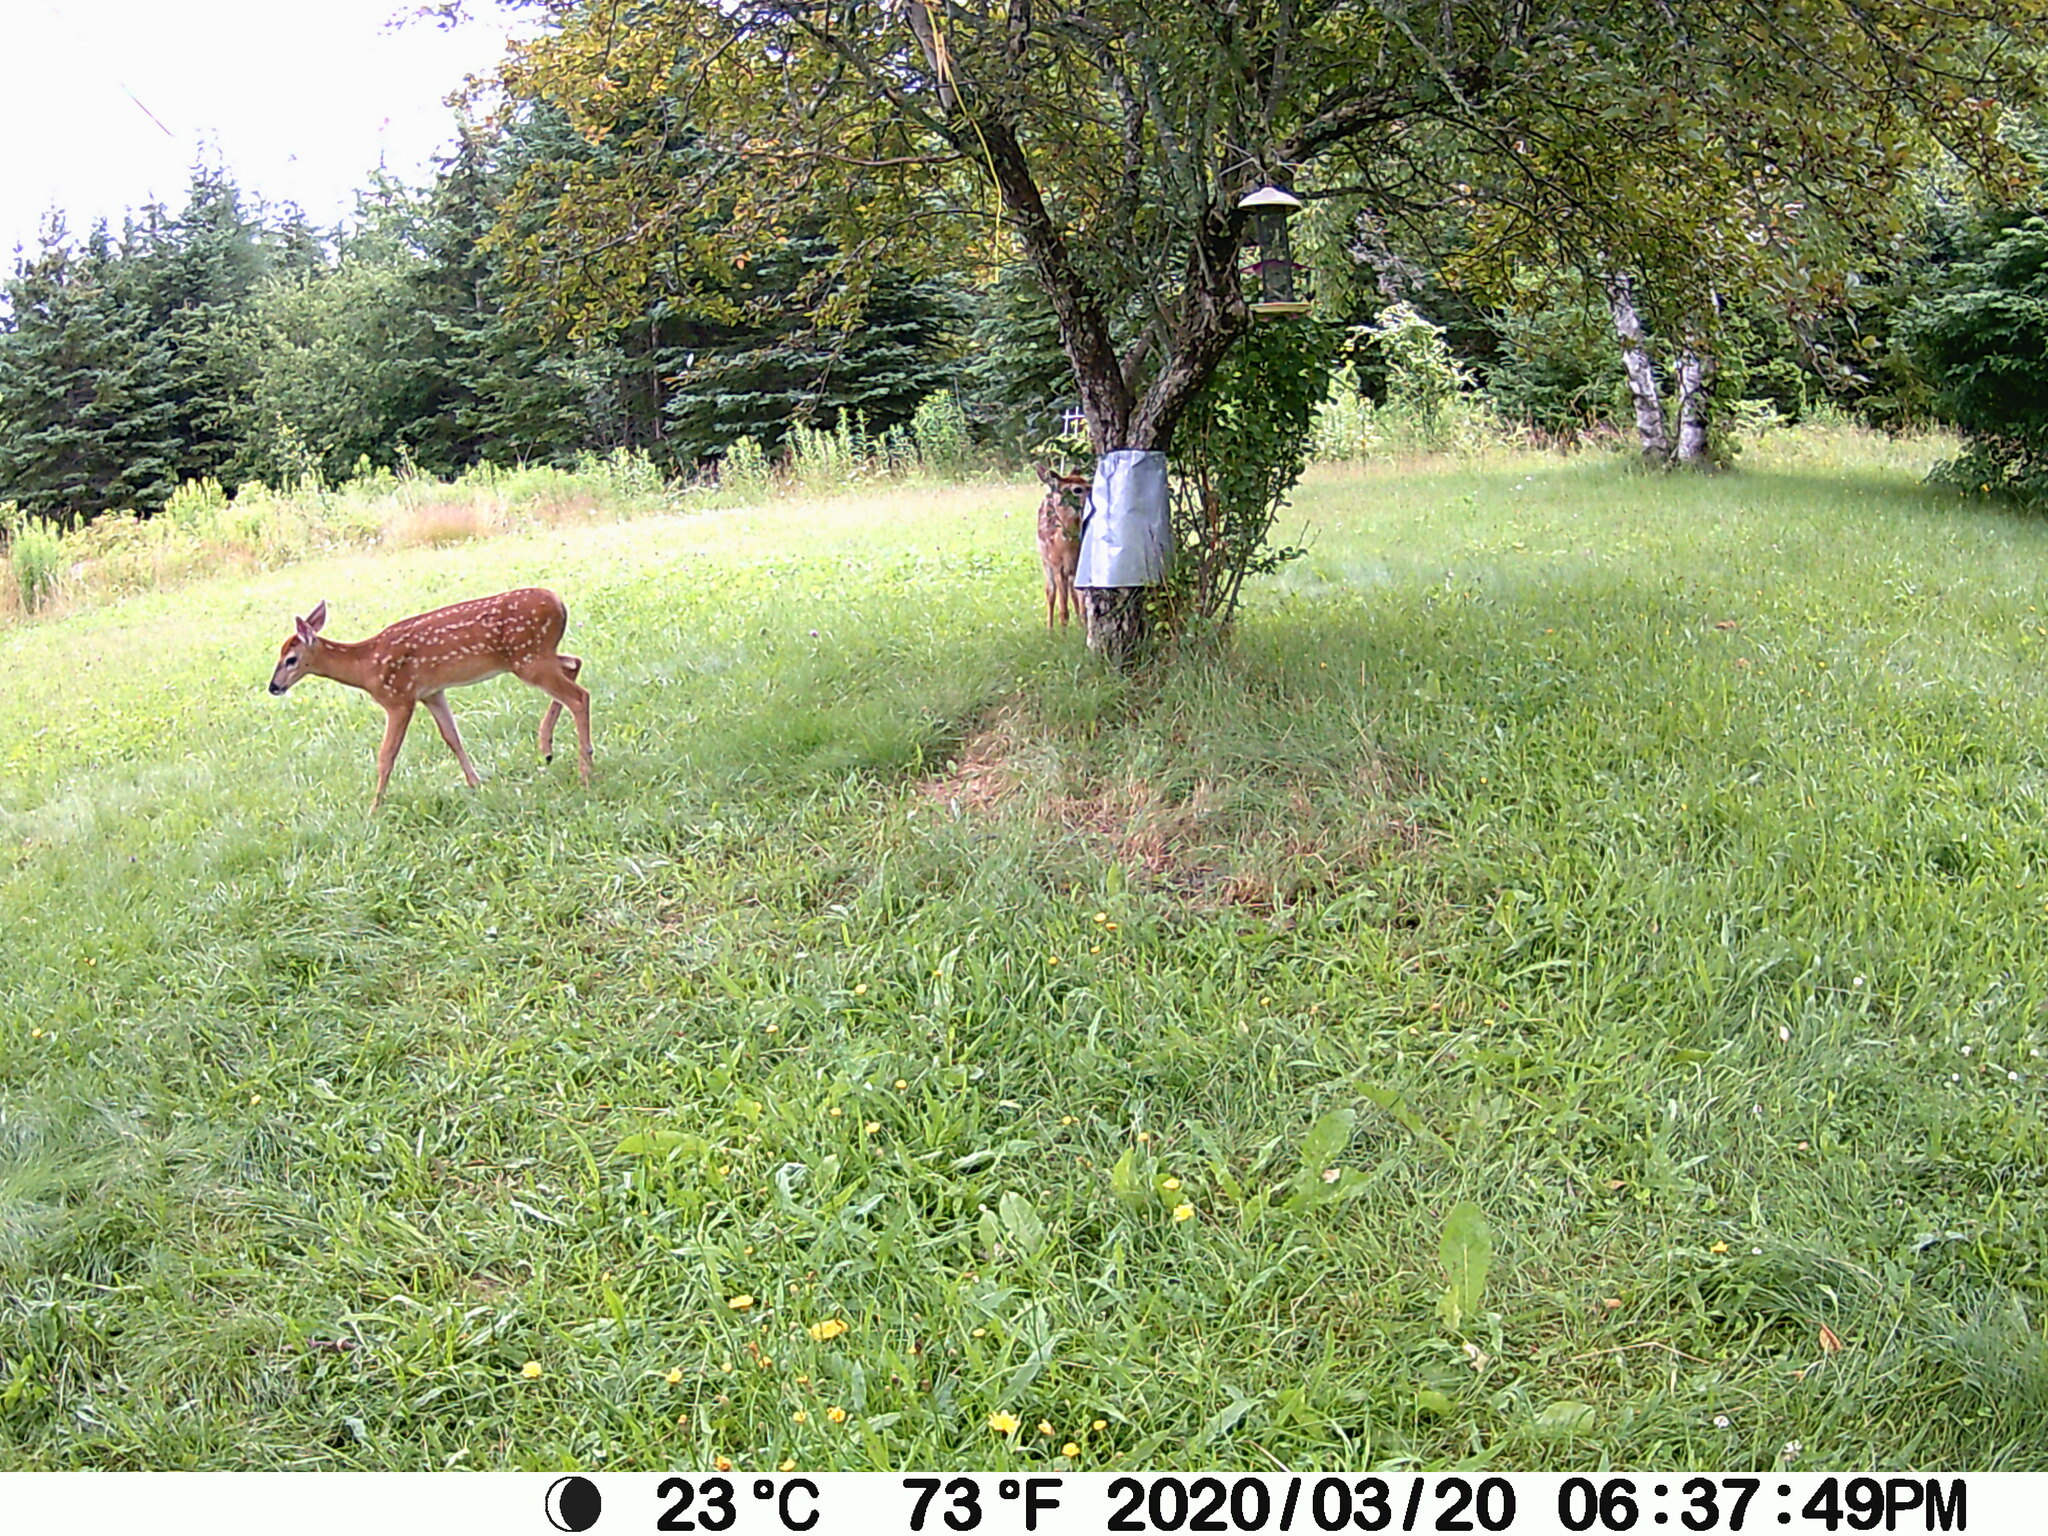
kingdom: Animalia
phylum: Chordata
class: Mammalia
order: Artiodactyla
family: Cervidae
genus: Odocoileus
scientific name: Odocoileus virginianus
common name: White-tailed deer
